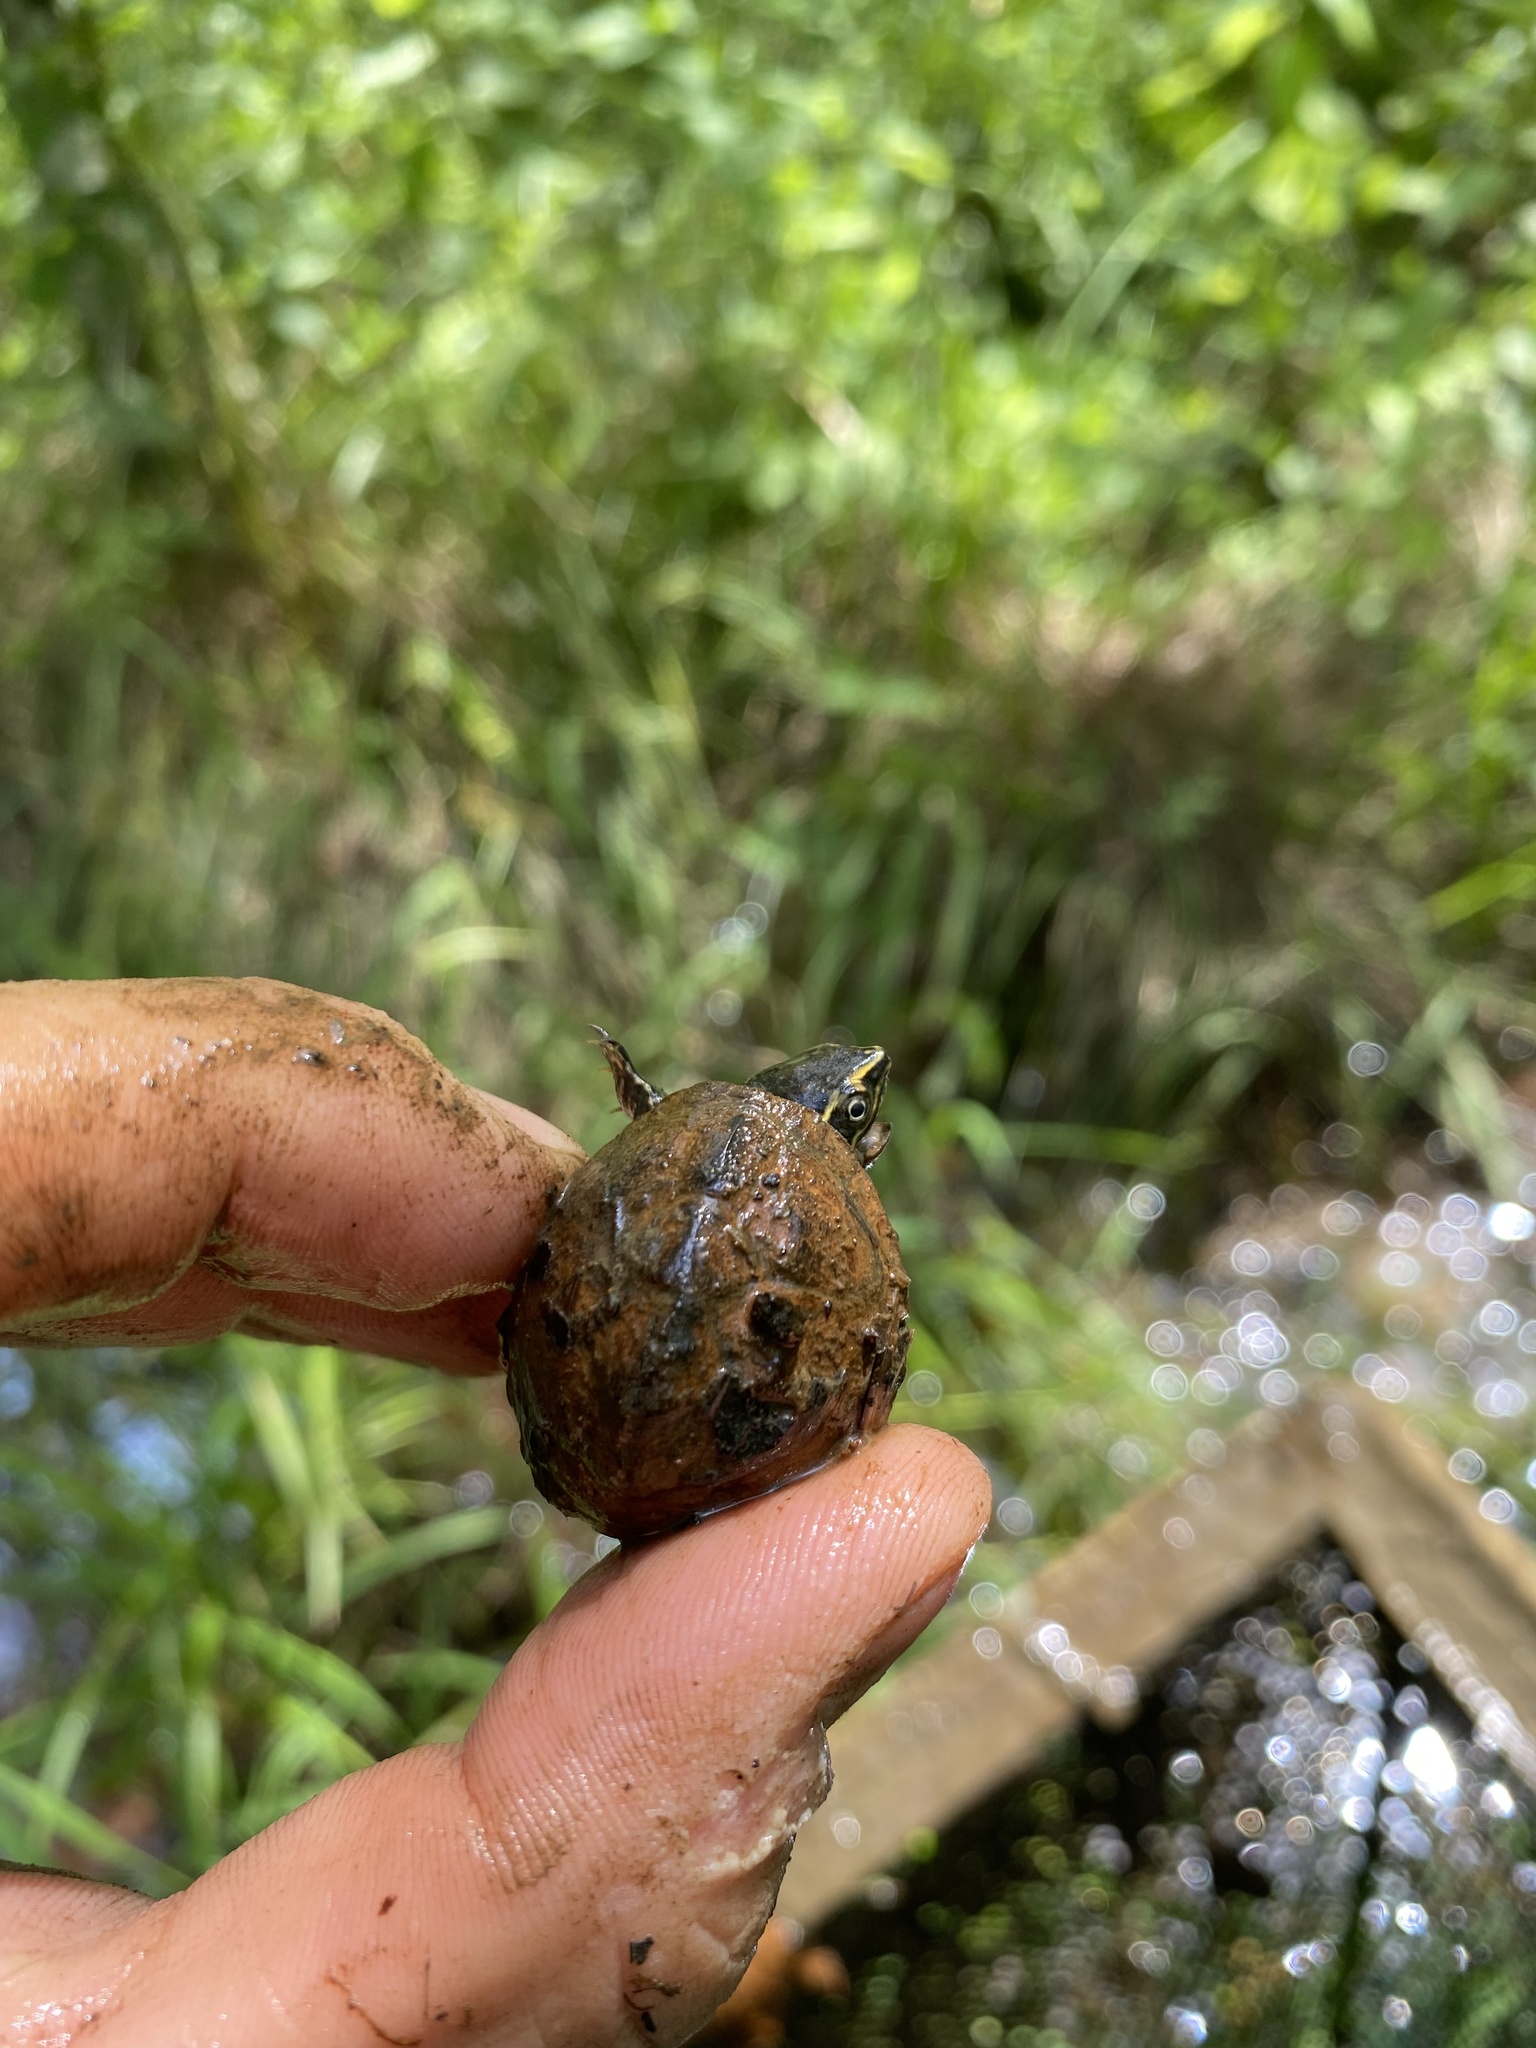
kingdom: Animalia
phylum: Chordata
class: Testudines
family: Kinosternidae
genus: Sternotherus
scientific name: Sternotherus odoratus
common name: Common musk turtle
